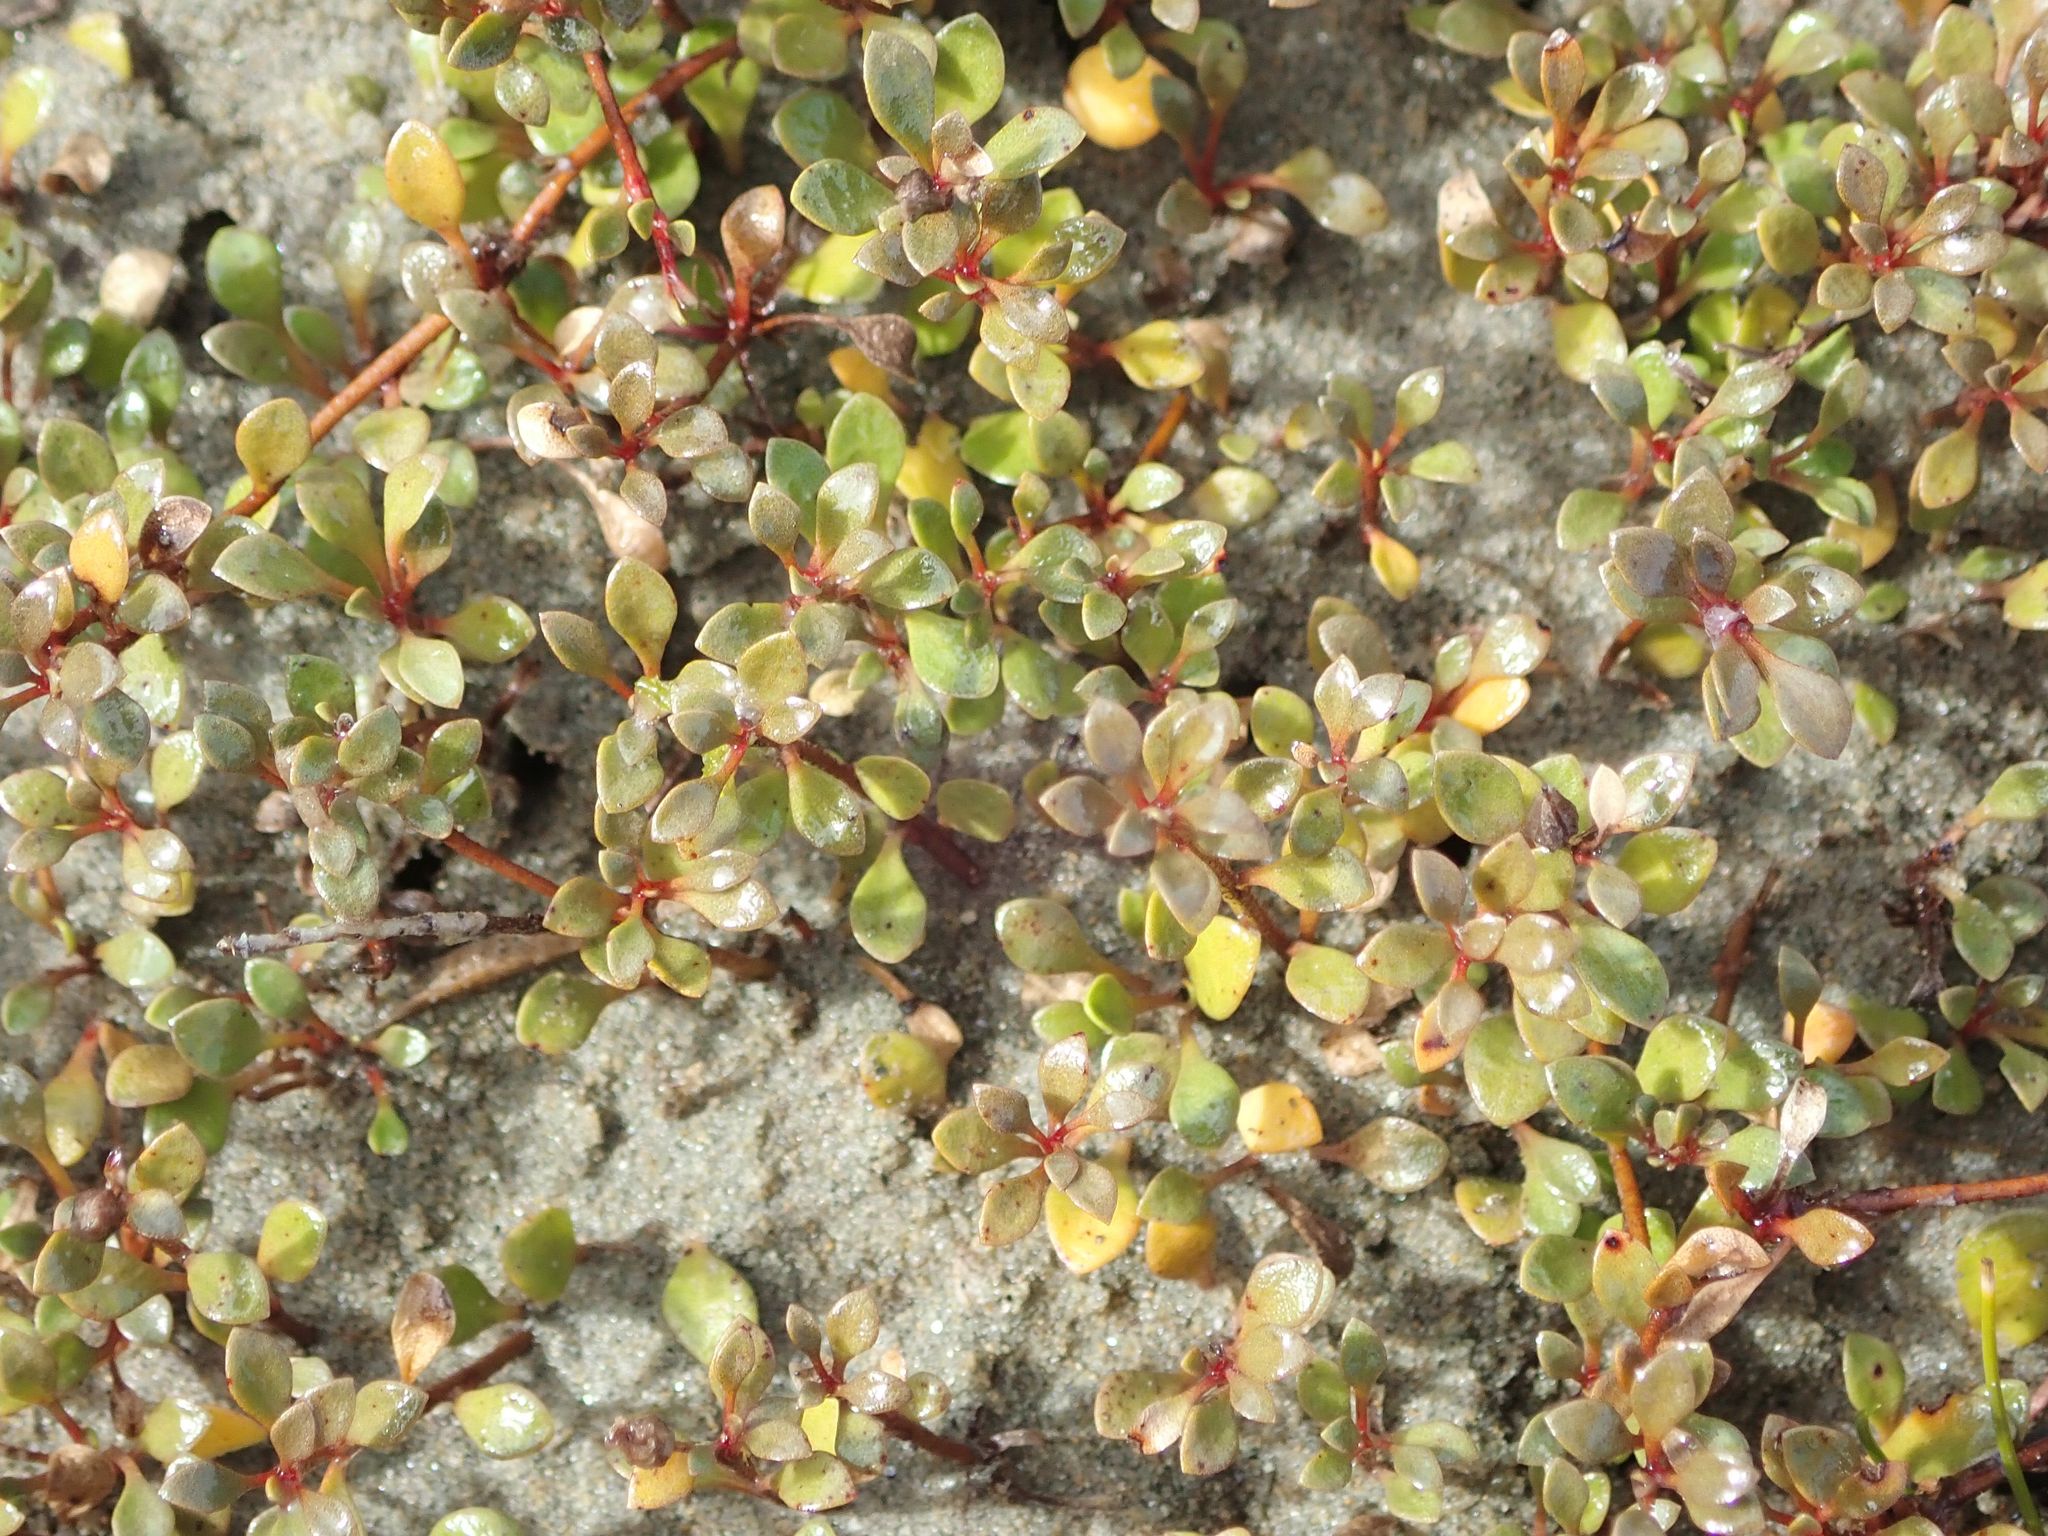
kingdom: Plantae
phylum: Tracheophyta
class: Magnoliopsida
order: Ericales
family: Primulaceae
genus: Samolus
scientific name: Samolus repens
